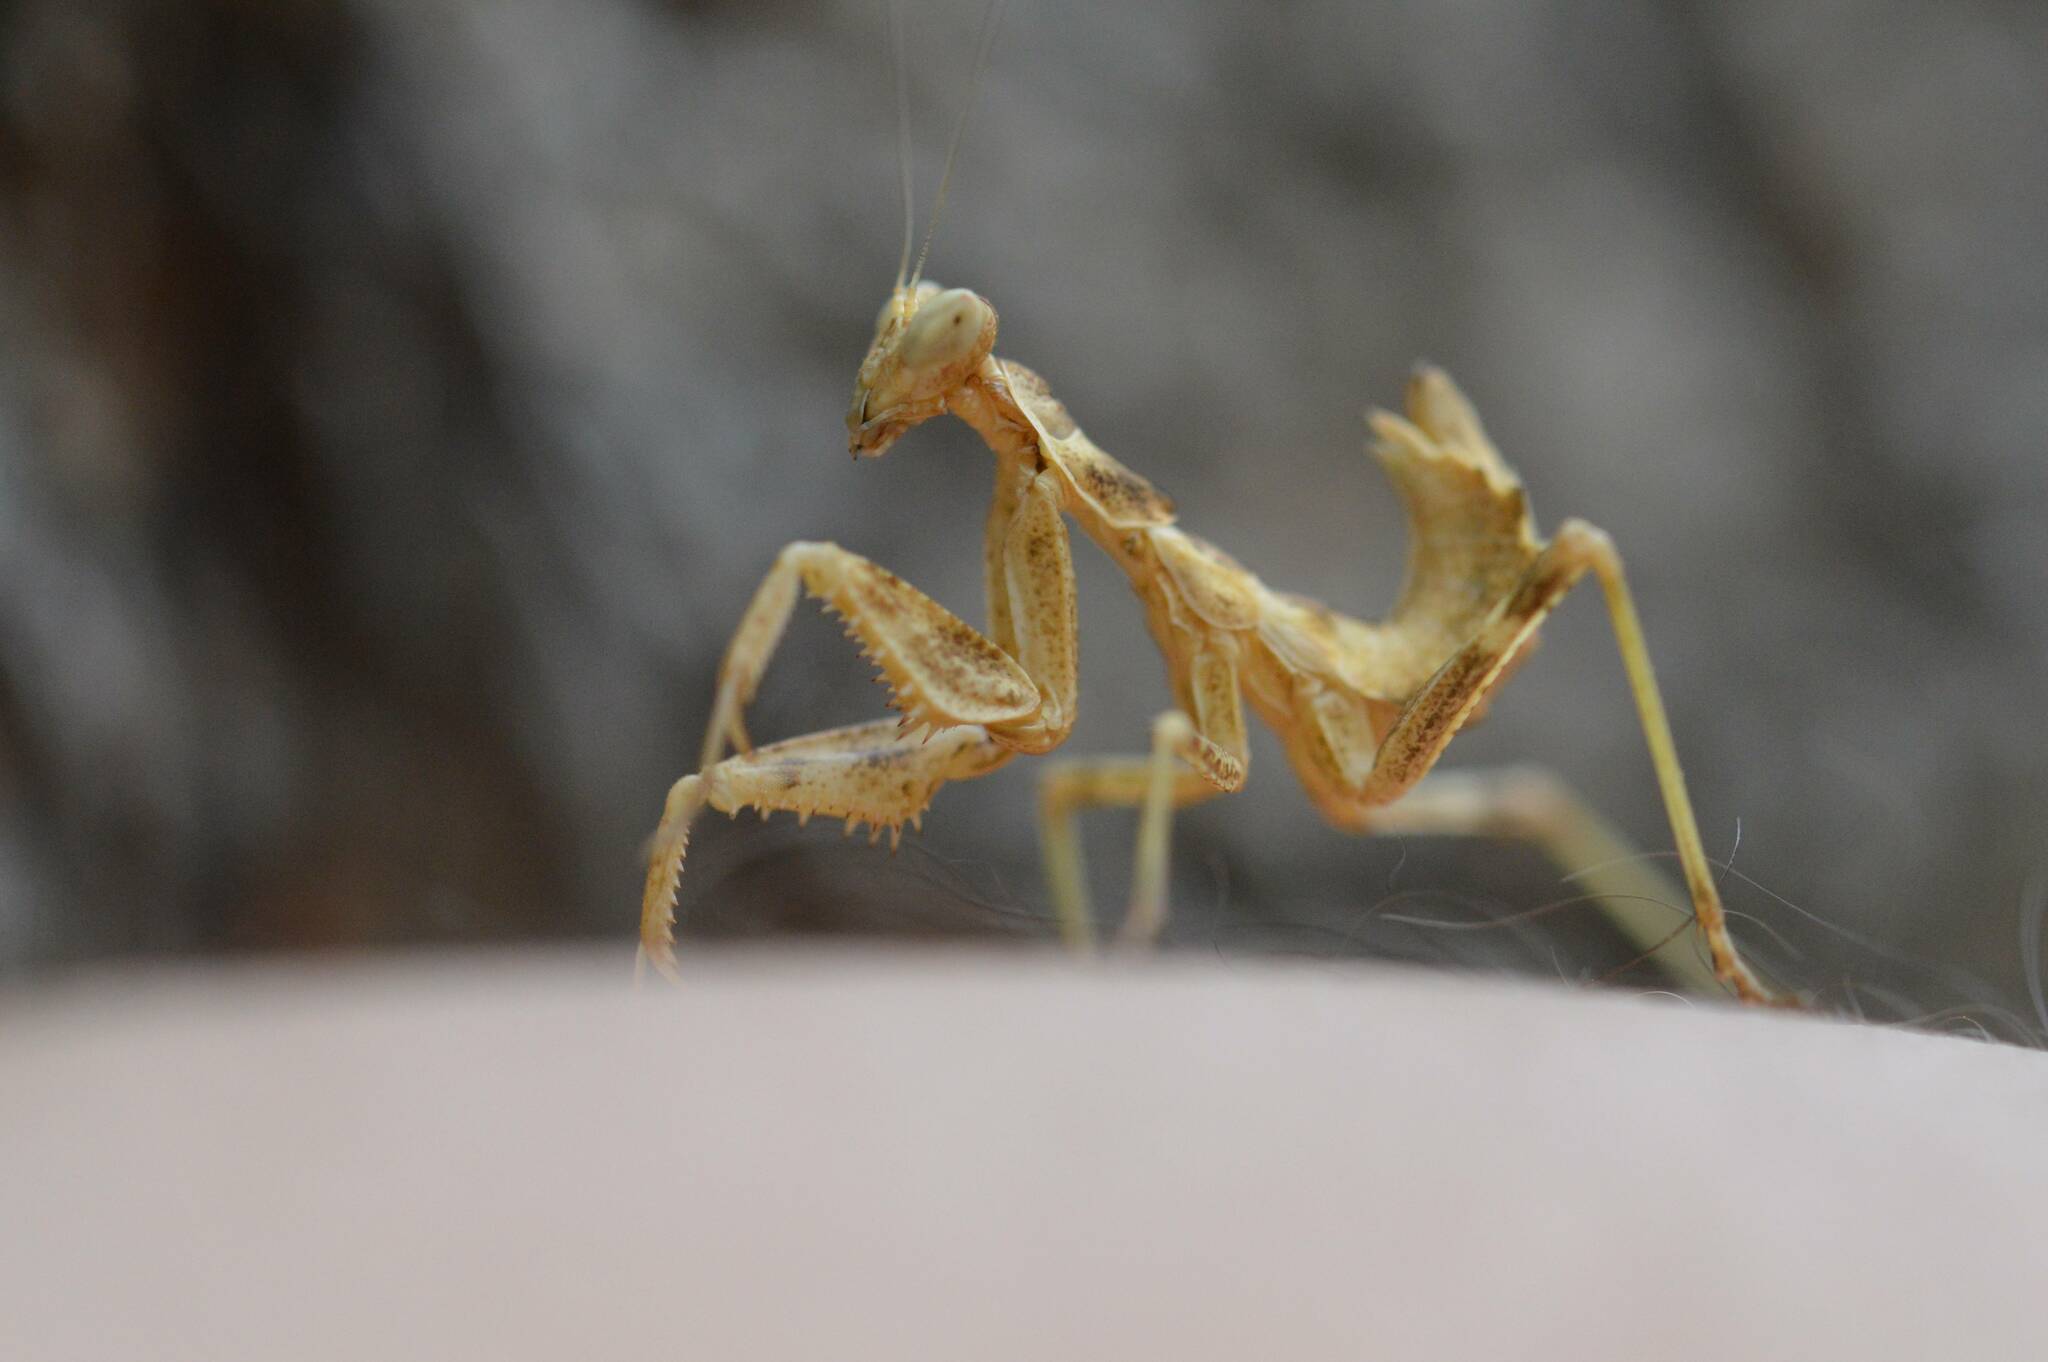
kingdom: Animalia
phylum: Arthropoda
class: Insecta
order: Mantodea
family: Amelidae
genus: Ameles
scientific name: Ameles spallanzania
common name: European dwarf mantis
